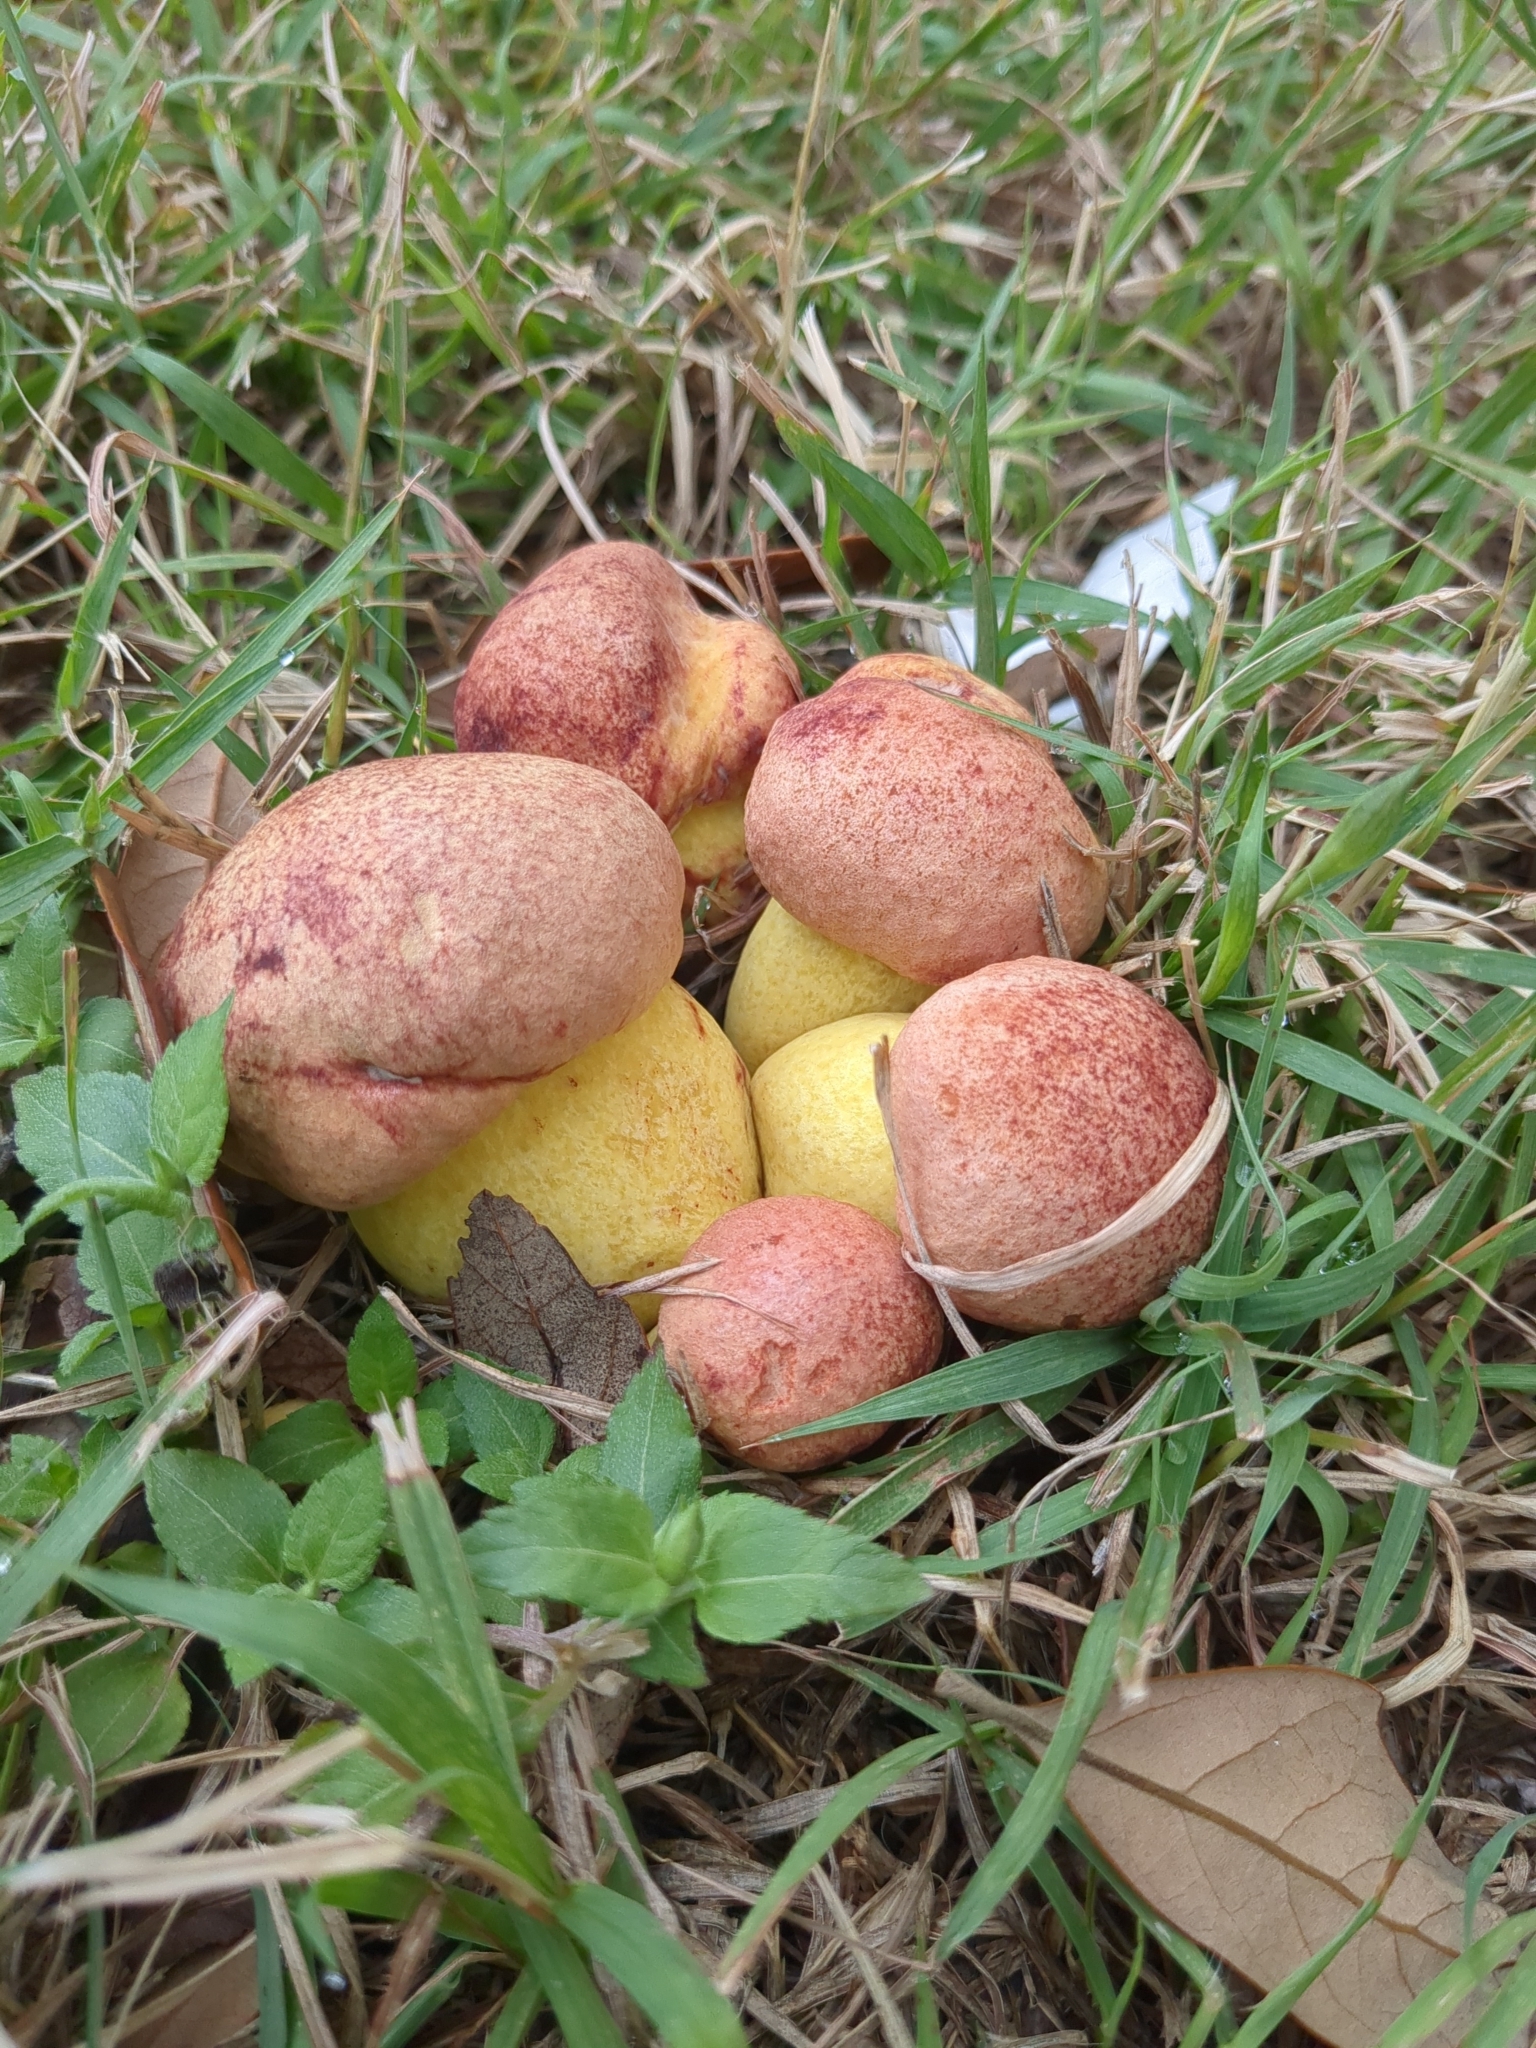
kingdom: Fungi
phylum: Basidiomycota
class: Agaricomycetes
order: Boletales
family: Boletaceae
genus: Pulchroboletus
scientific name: Pulchroboletus rubricitrinus
